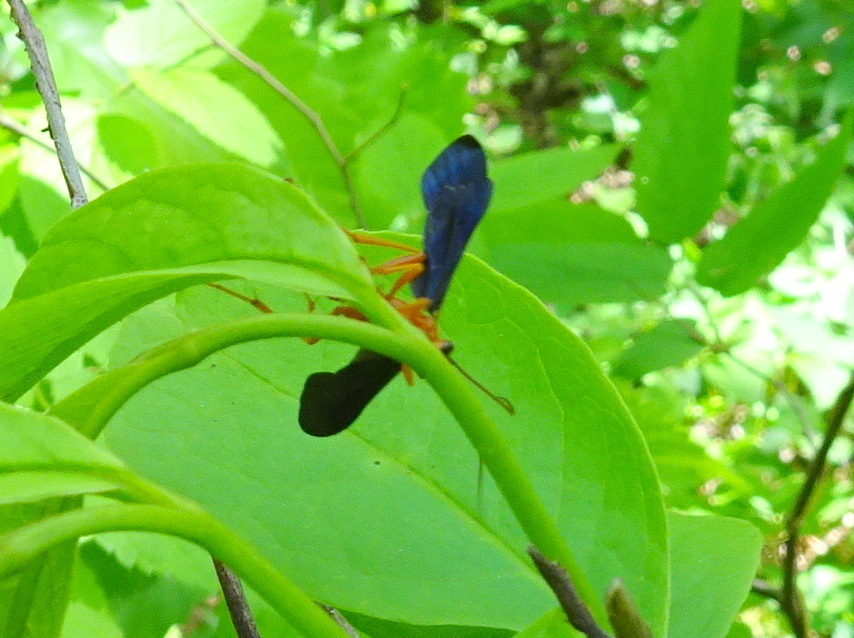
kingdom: Animalia
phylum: Arthropoda
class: Insecta
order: Hymenoptera
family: Ichneumonidae
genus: Trogus
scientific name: Trogus pennator
